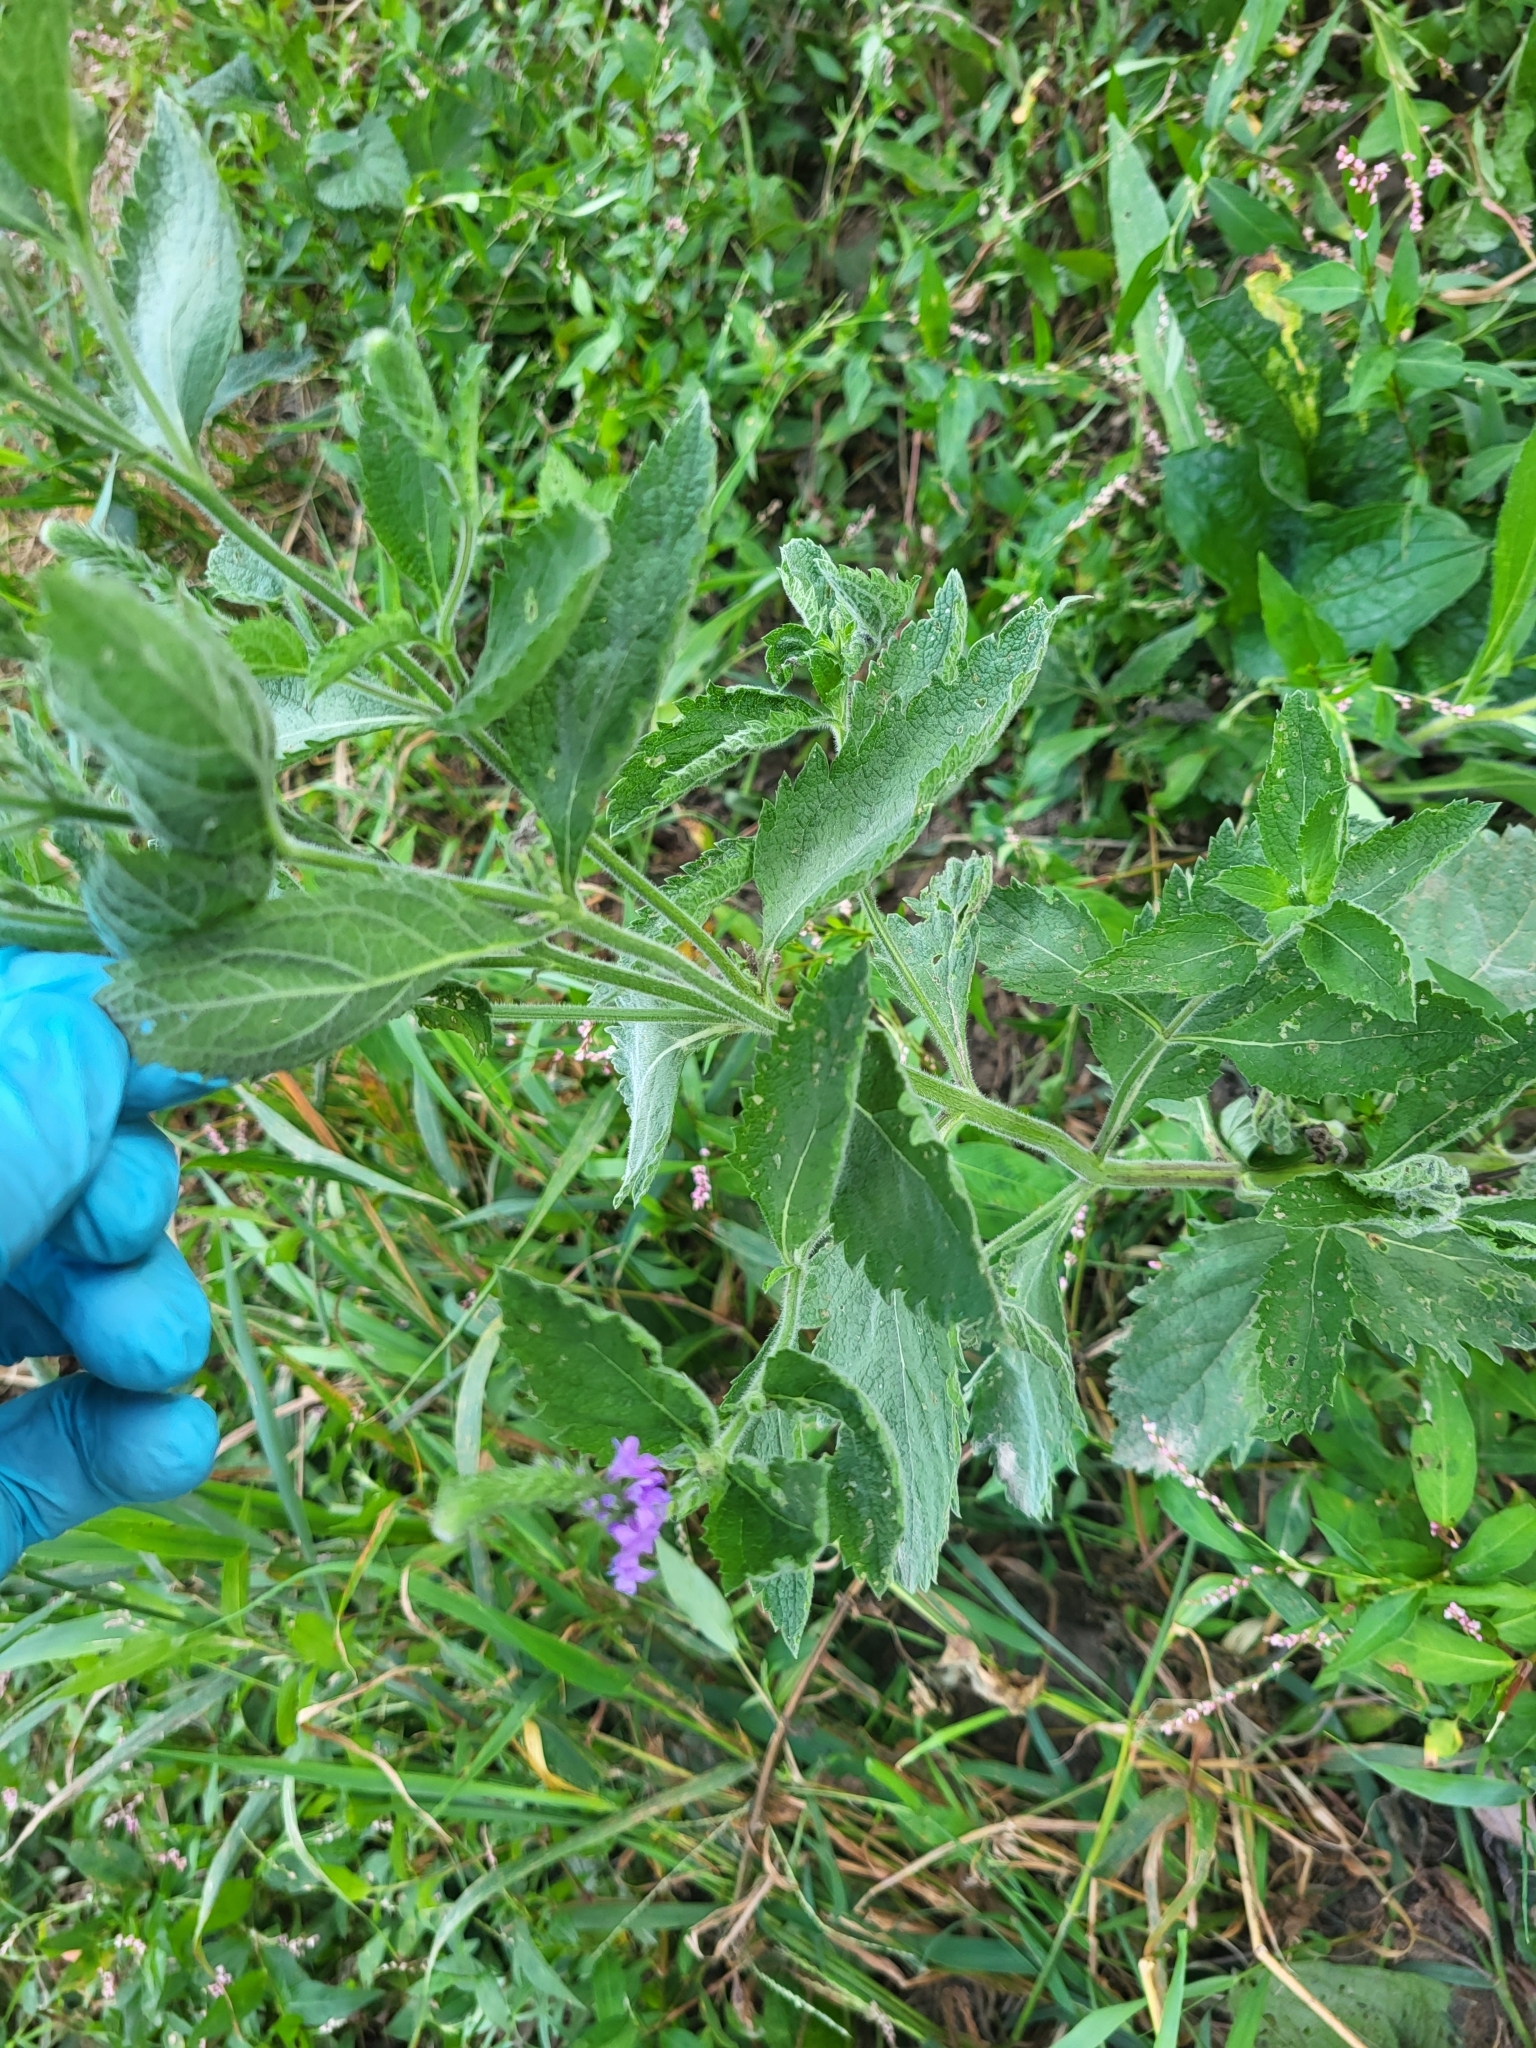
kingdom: Plantae
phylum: Tracheophyta
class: Magnoliopsida
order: Lamiales
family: Verbenaceae
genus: Verbena
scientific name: Verbena stricta
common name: Hoary vervain
